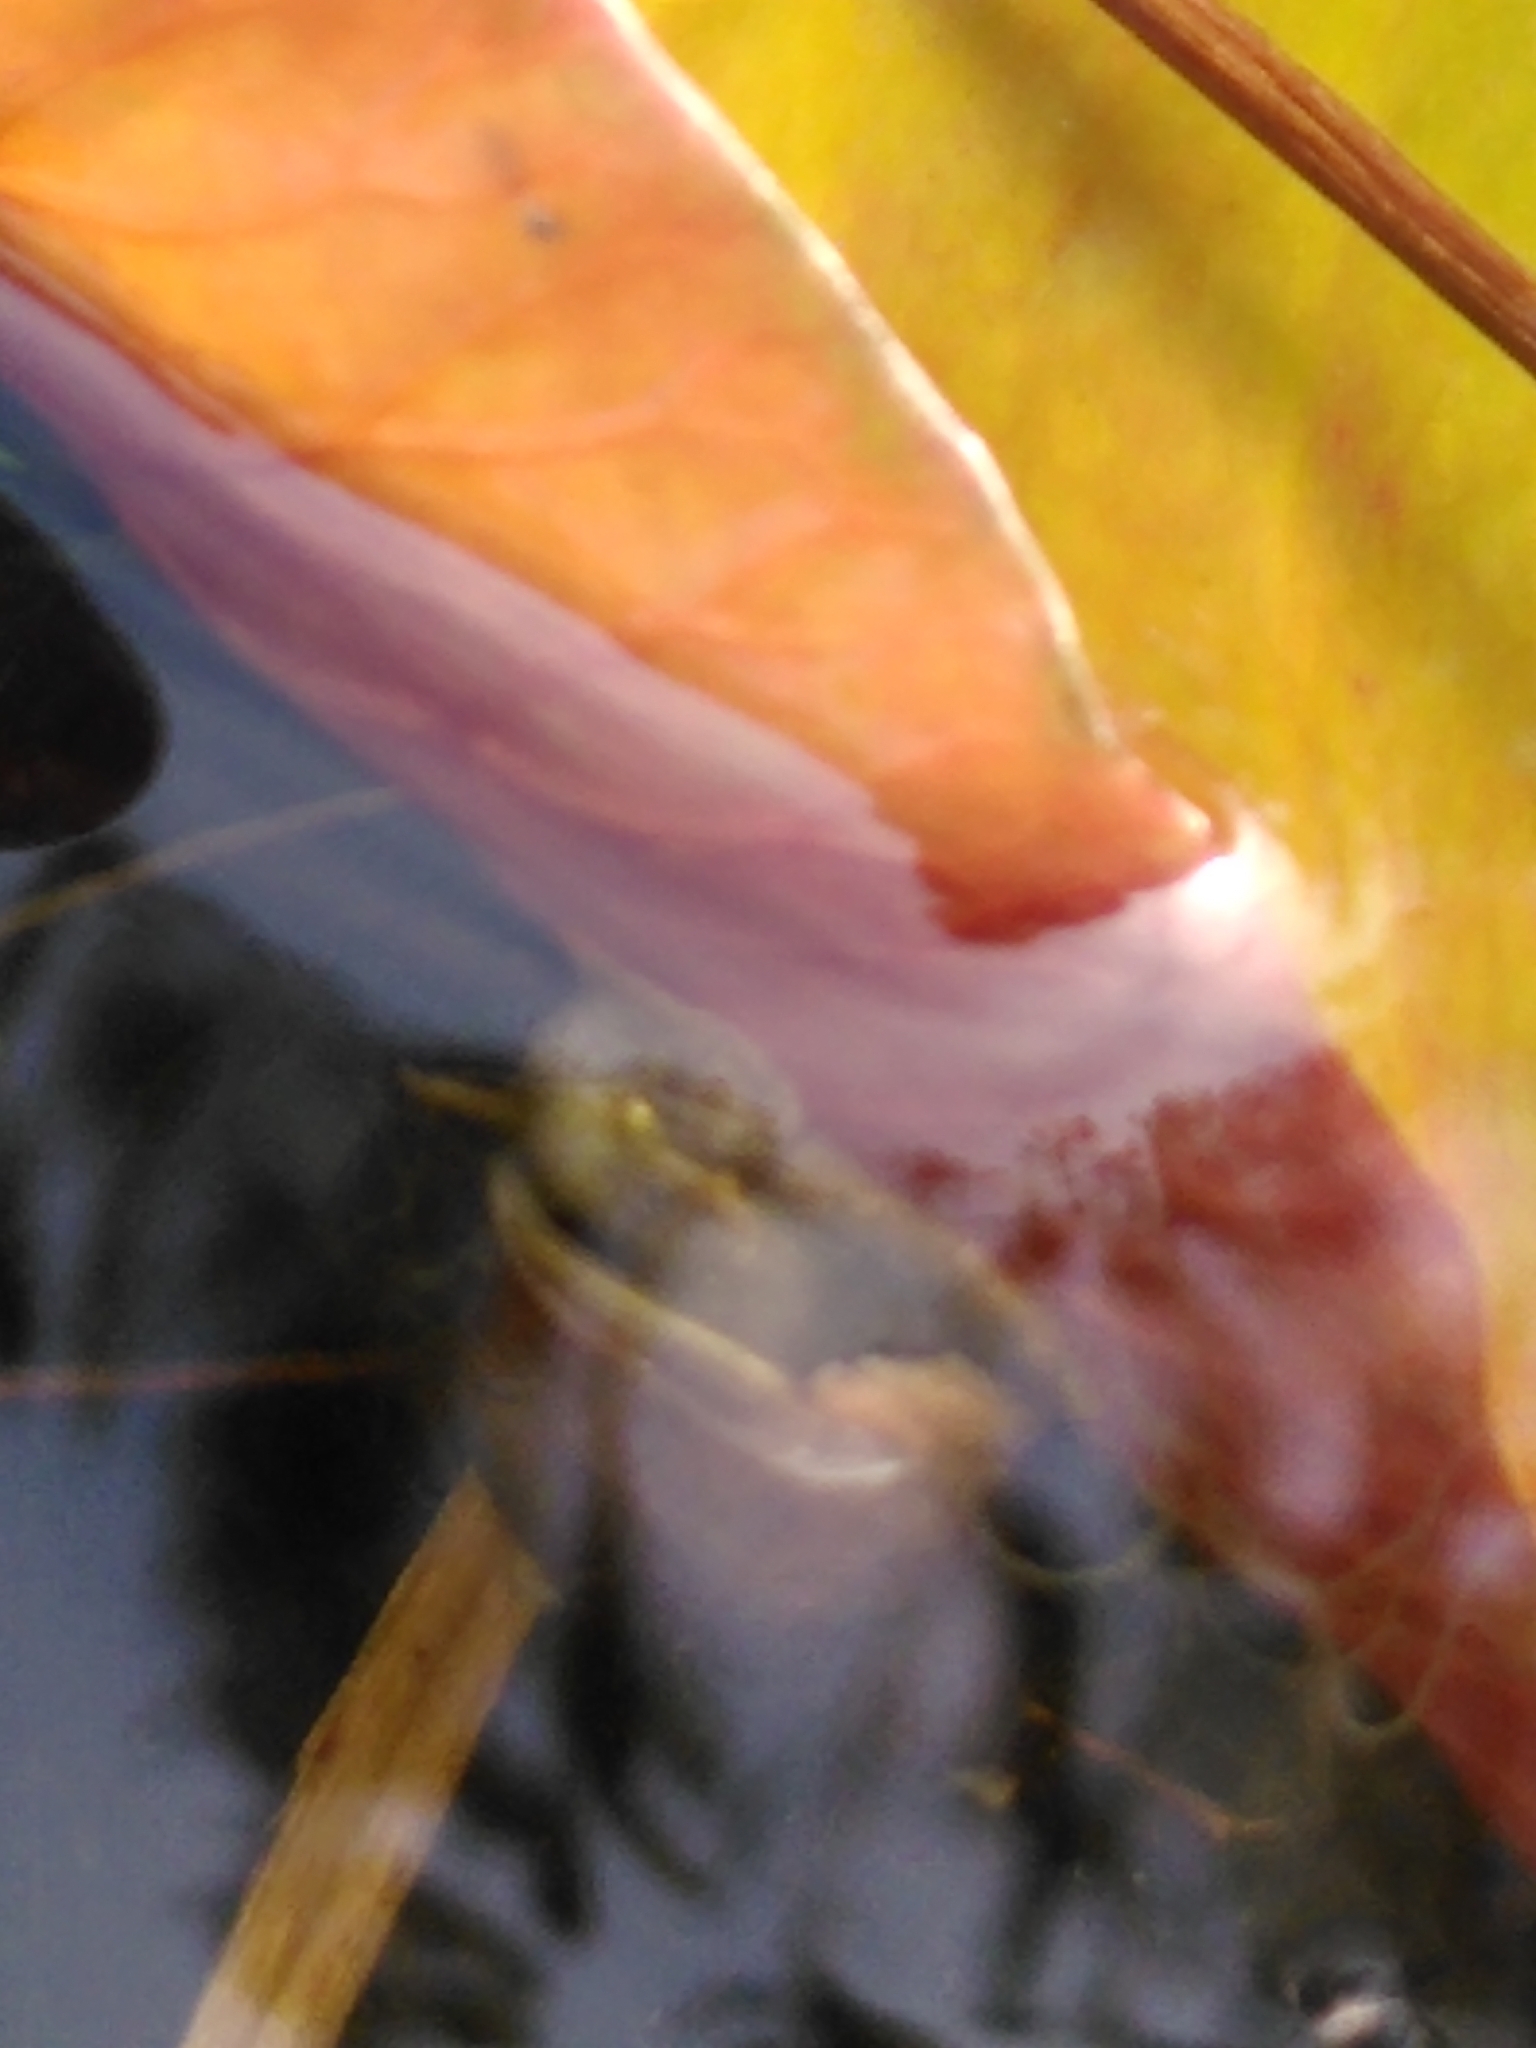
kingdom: Animalia
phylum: Mollusca
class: Gastropoda
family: Lymnaeidae
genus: Lymnaea
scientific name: Lymnaea stagnalis
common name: Great pond snail
